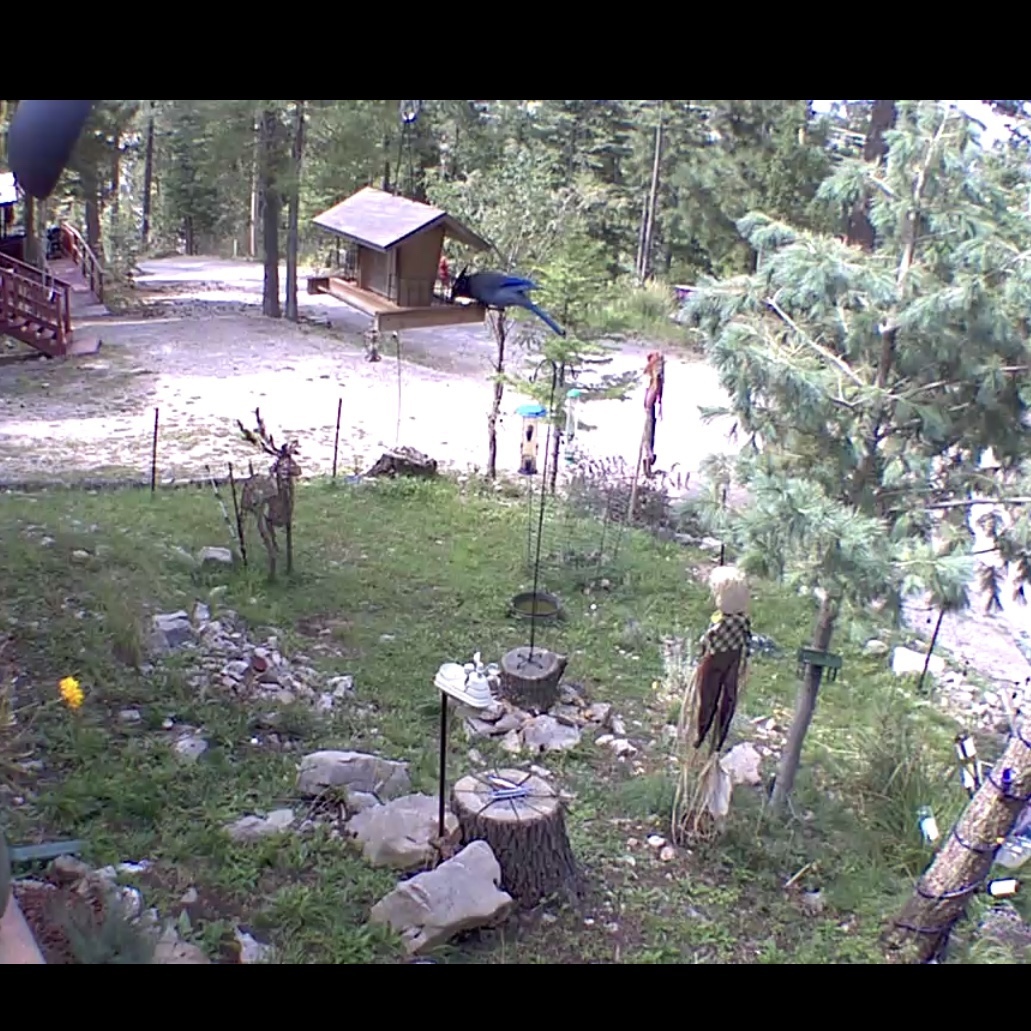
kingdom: Animalia
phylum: Chordata
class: Aves
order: Passeriformes
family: Corvidae
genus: Cyanocitta
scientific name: Cyanocitta stelleri
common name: Steller's jay
